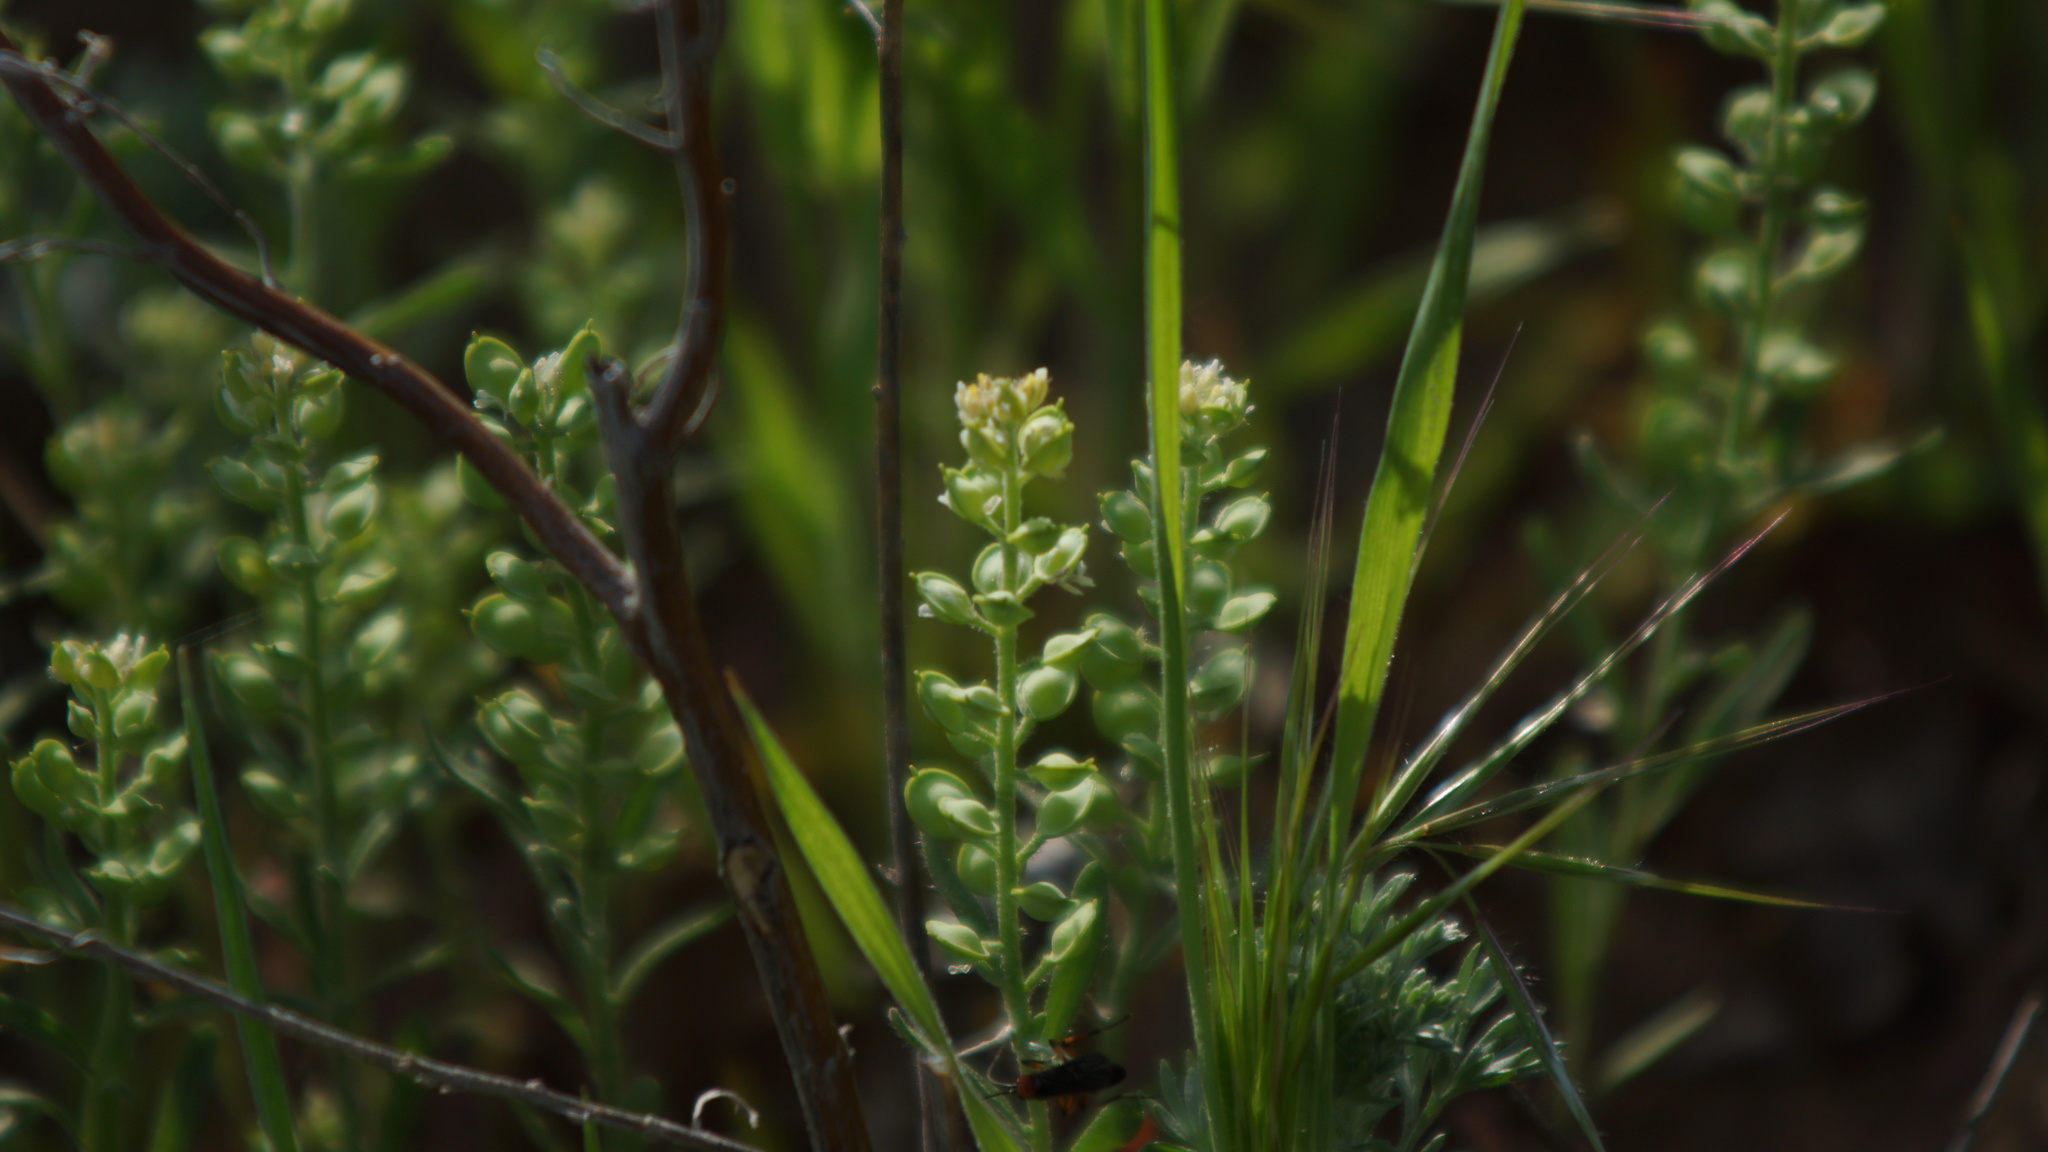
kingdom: Plantae
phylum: Tracheophyta
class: Magnoliopsida
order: Brassicales
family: Brassicaceae
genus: Alyssum
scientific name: Alyssum turkestanicum
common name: Desert alyssum
